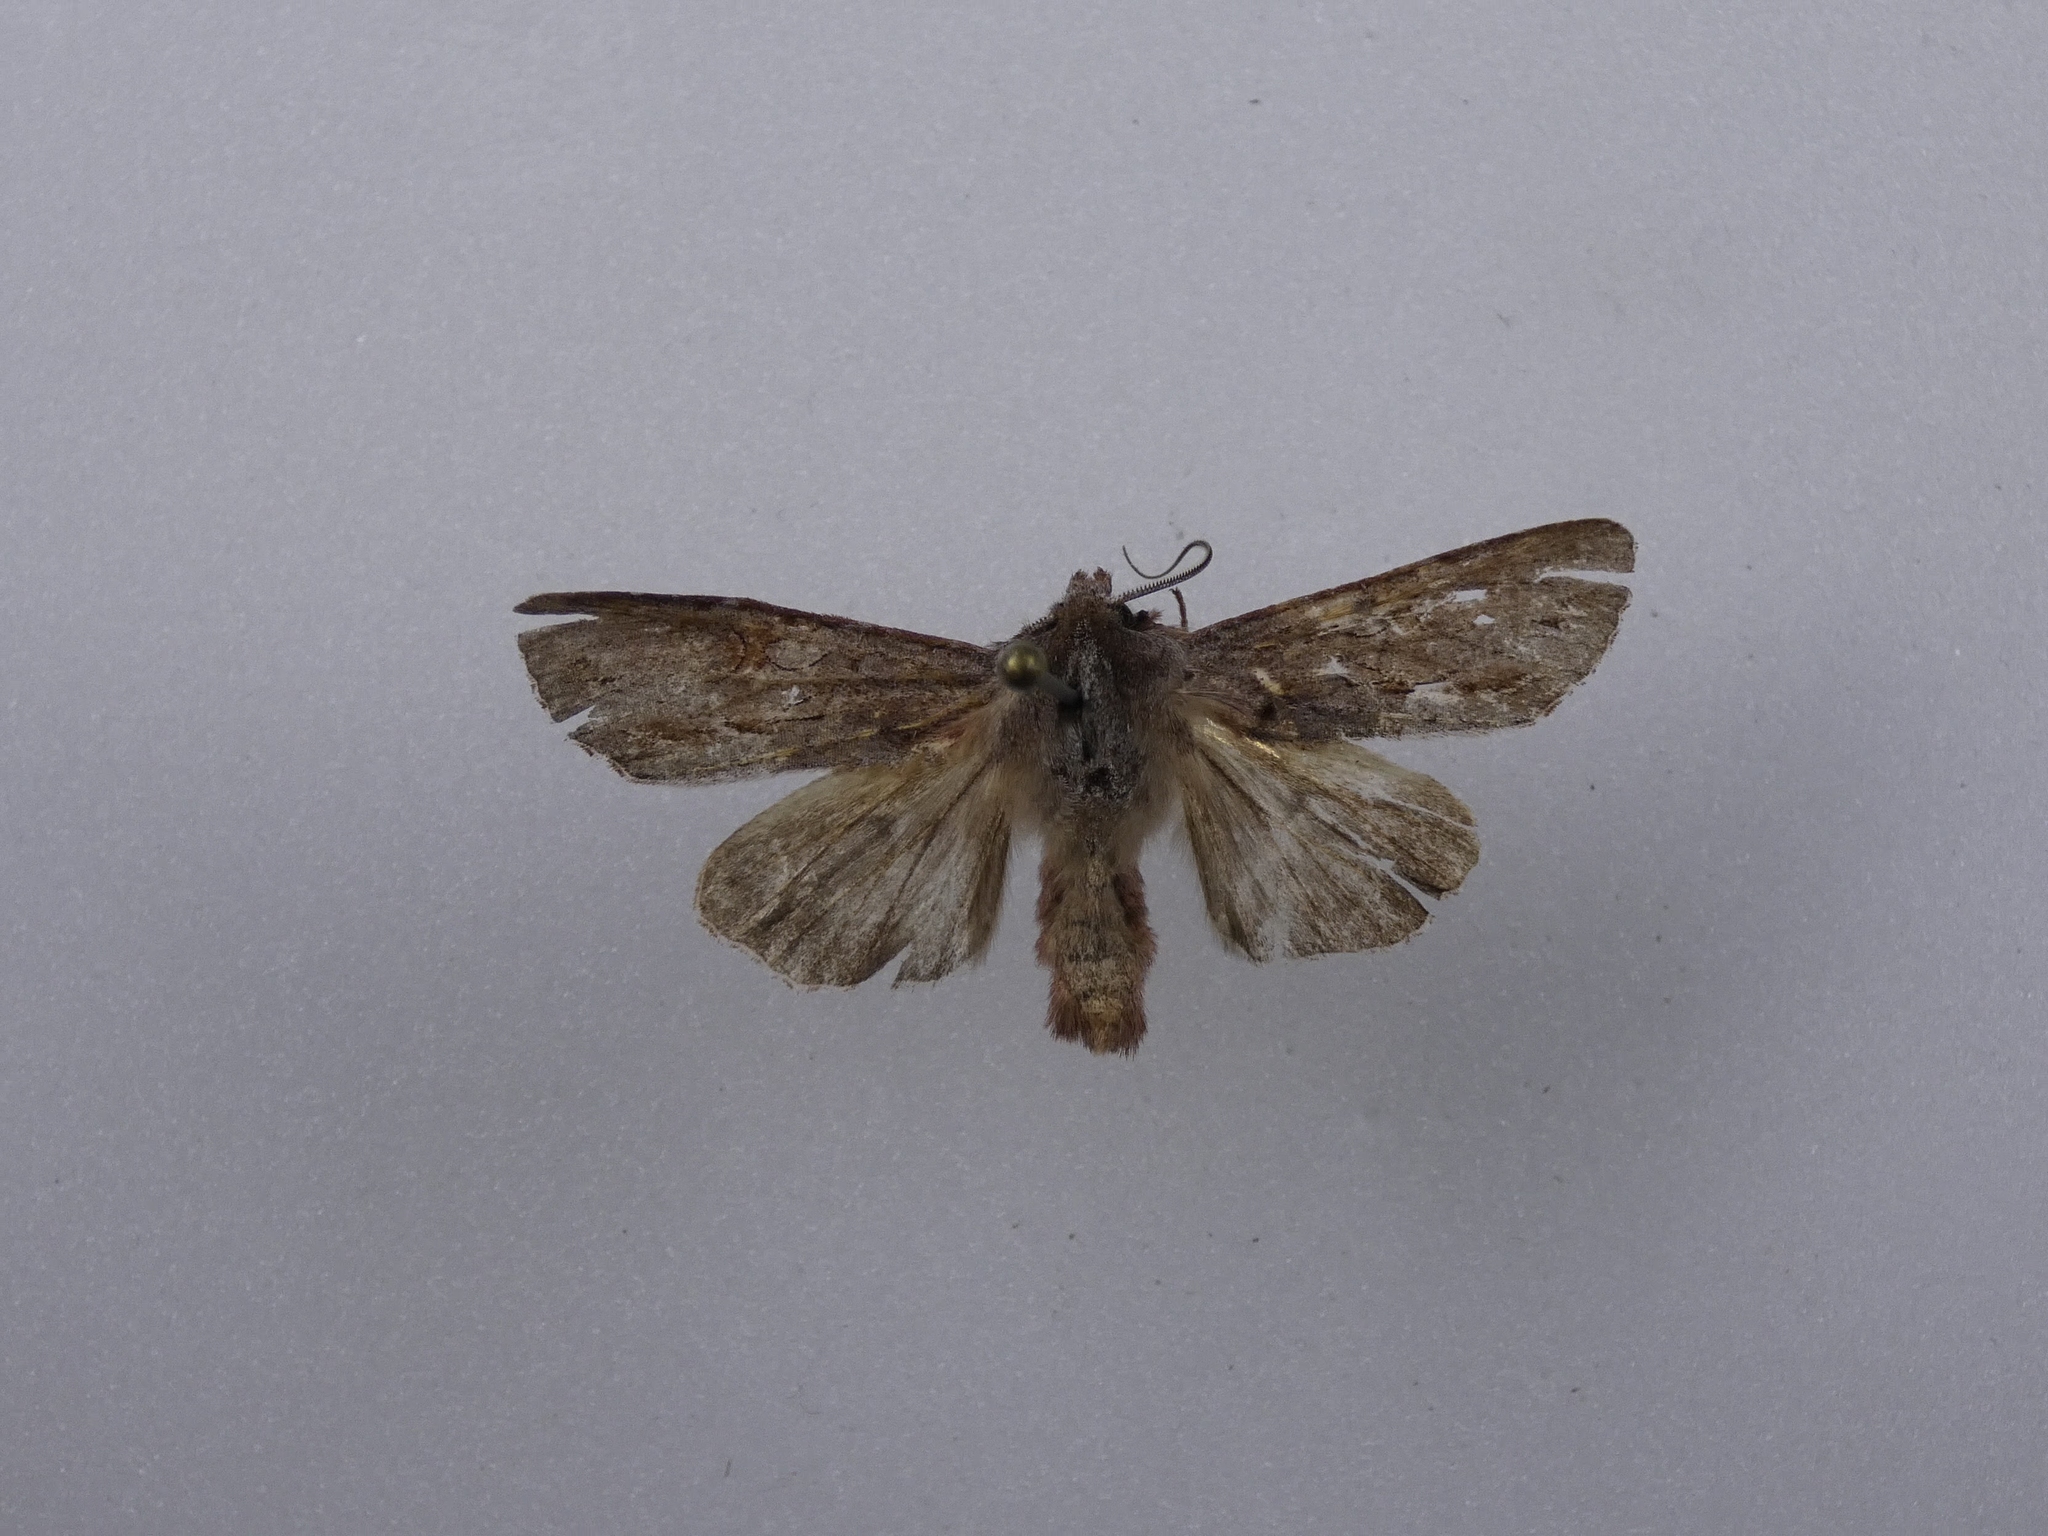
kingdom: Animalia
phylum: Arthropoda
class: Insecta
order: Lepidoptera
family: Noctuidae
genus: Ichneutica
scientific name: Ichneutica
